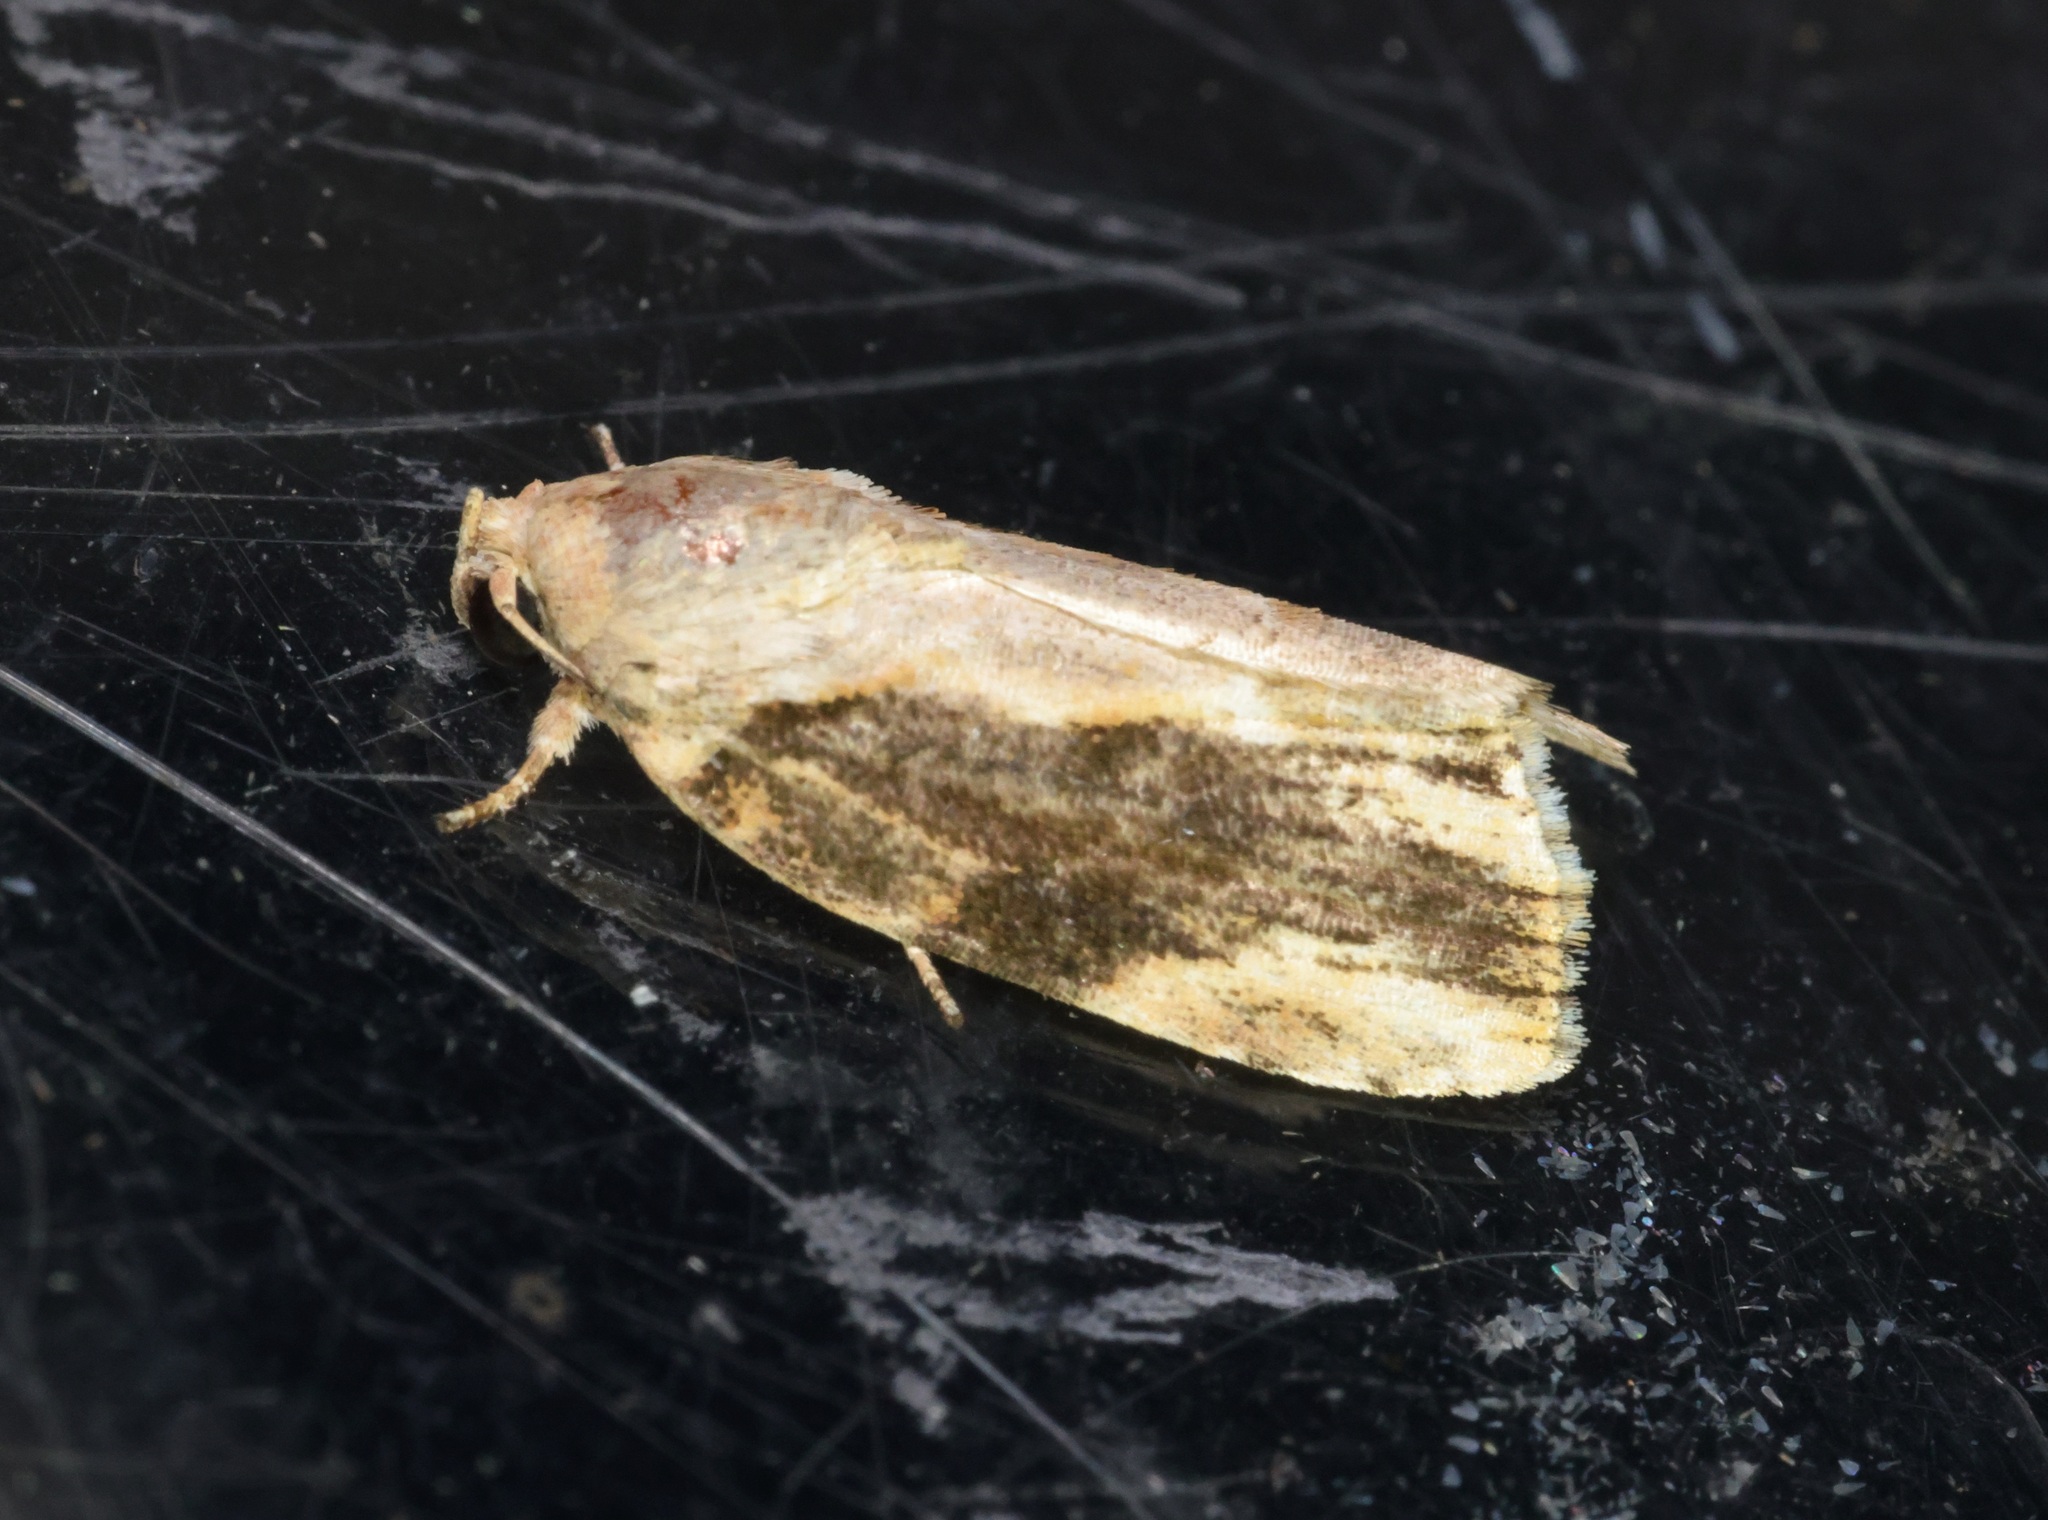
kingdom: Animalia
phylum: Arthropoda
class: Insecta
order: Lepidoptera
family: Nolidae
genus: Etanna
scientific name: Etanna breviuscula
